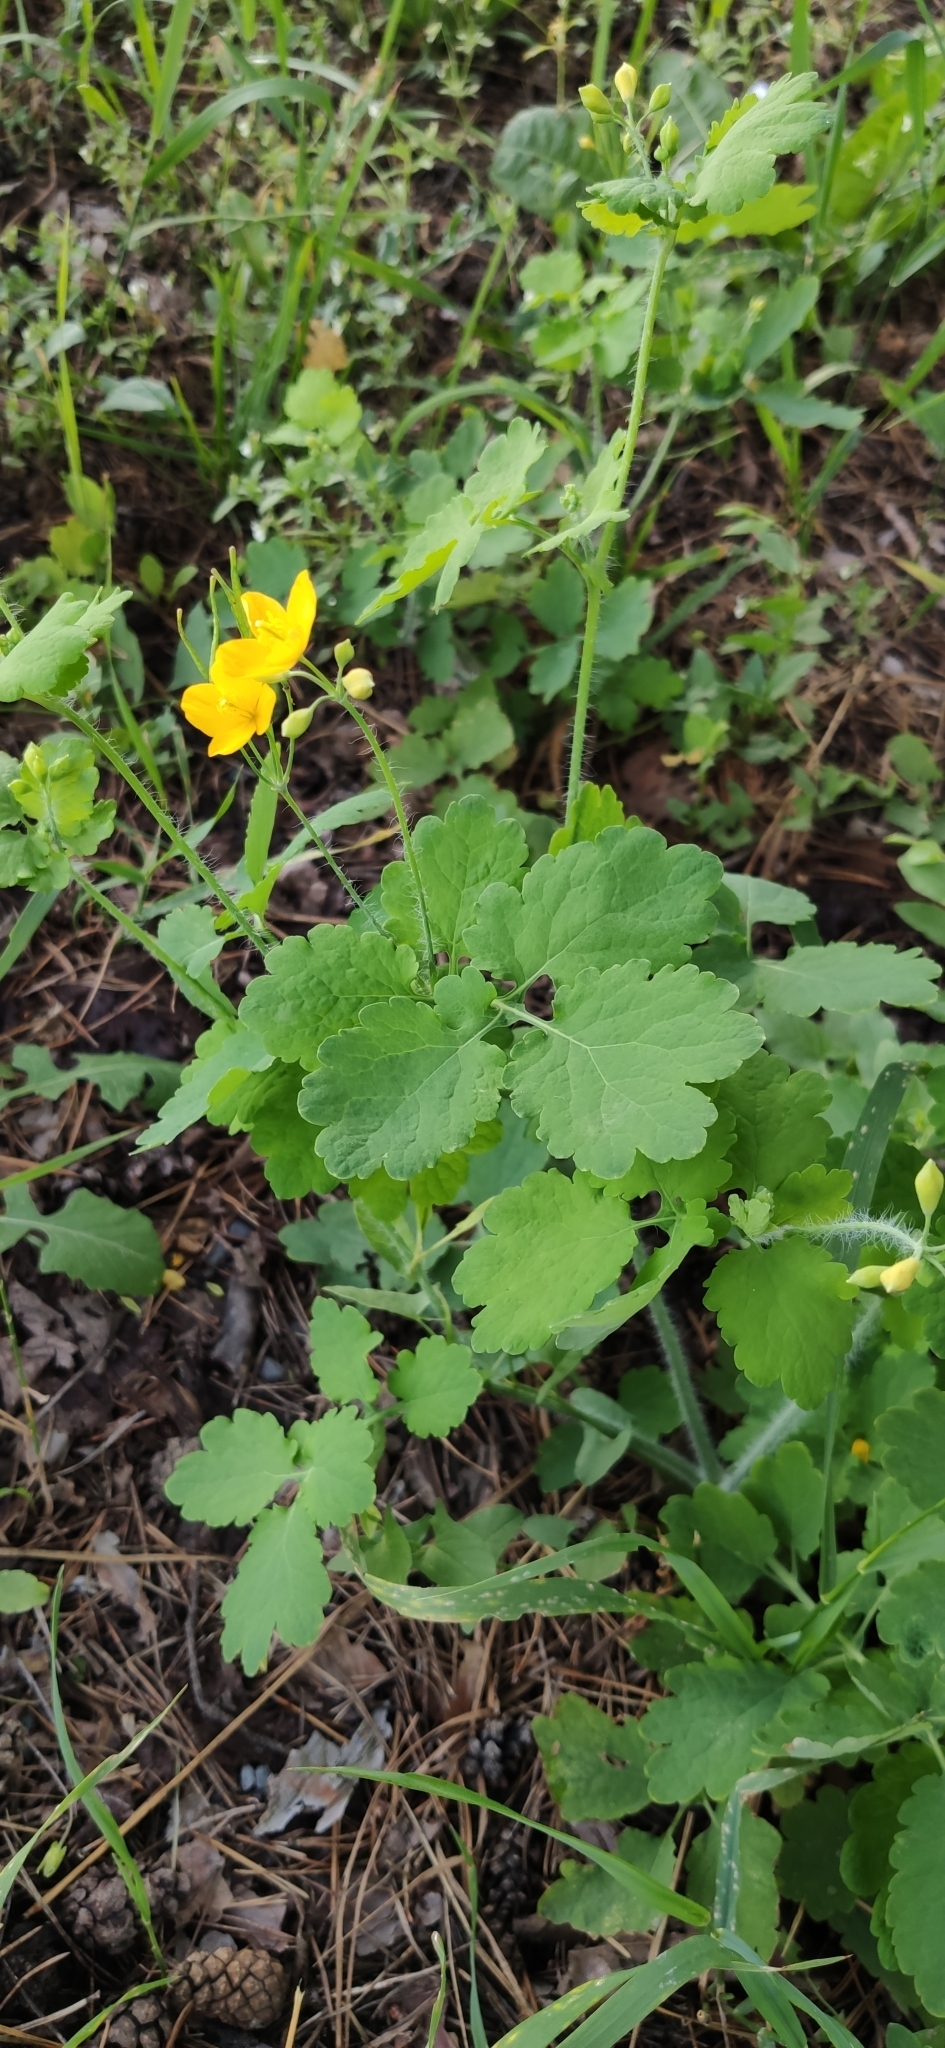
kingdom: Plantae
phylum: Tracheophyta
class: Magnoliopsida
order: Ranunculales
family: Papaveraceae
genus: Chelidonium
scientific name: Chelidonium majus
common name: Greater celandine
